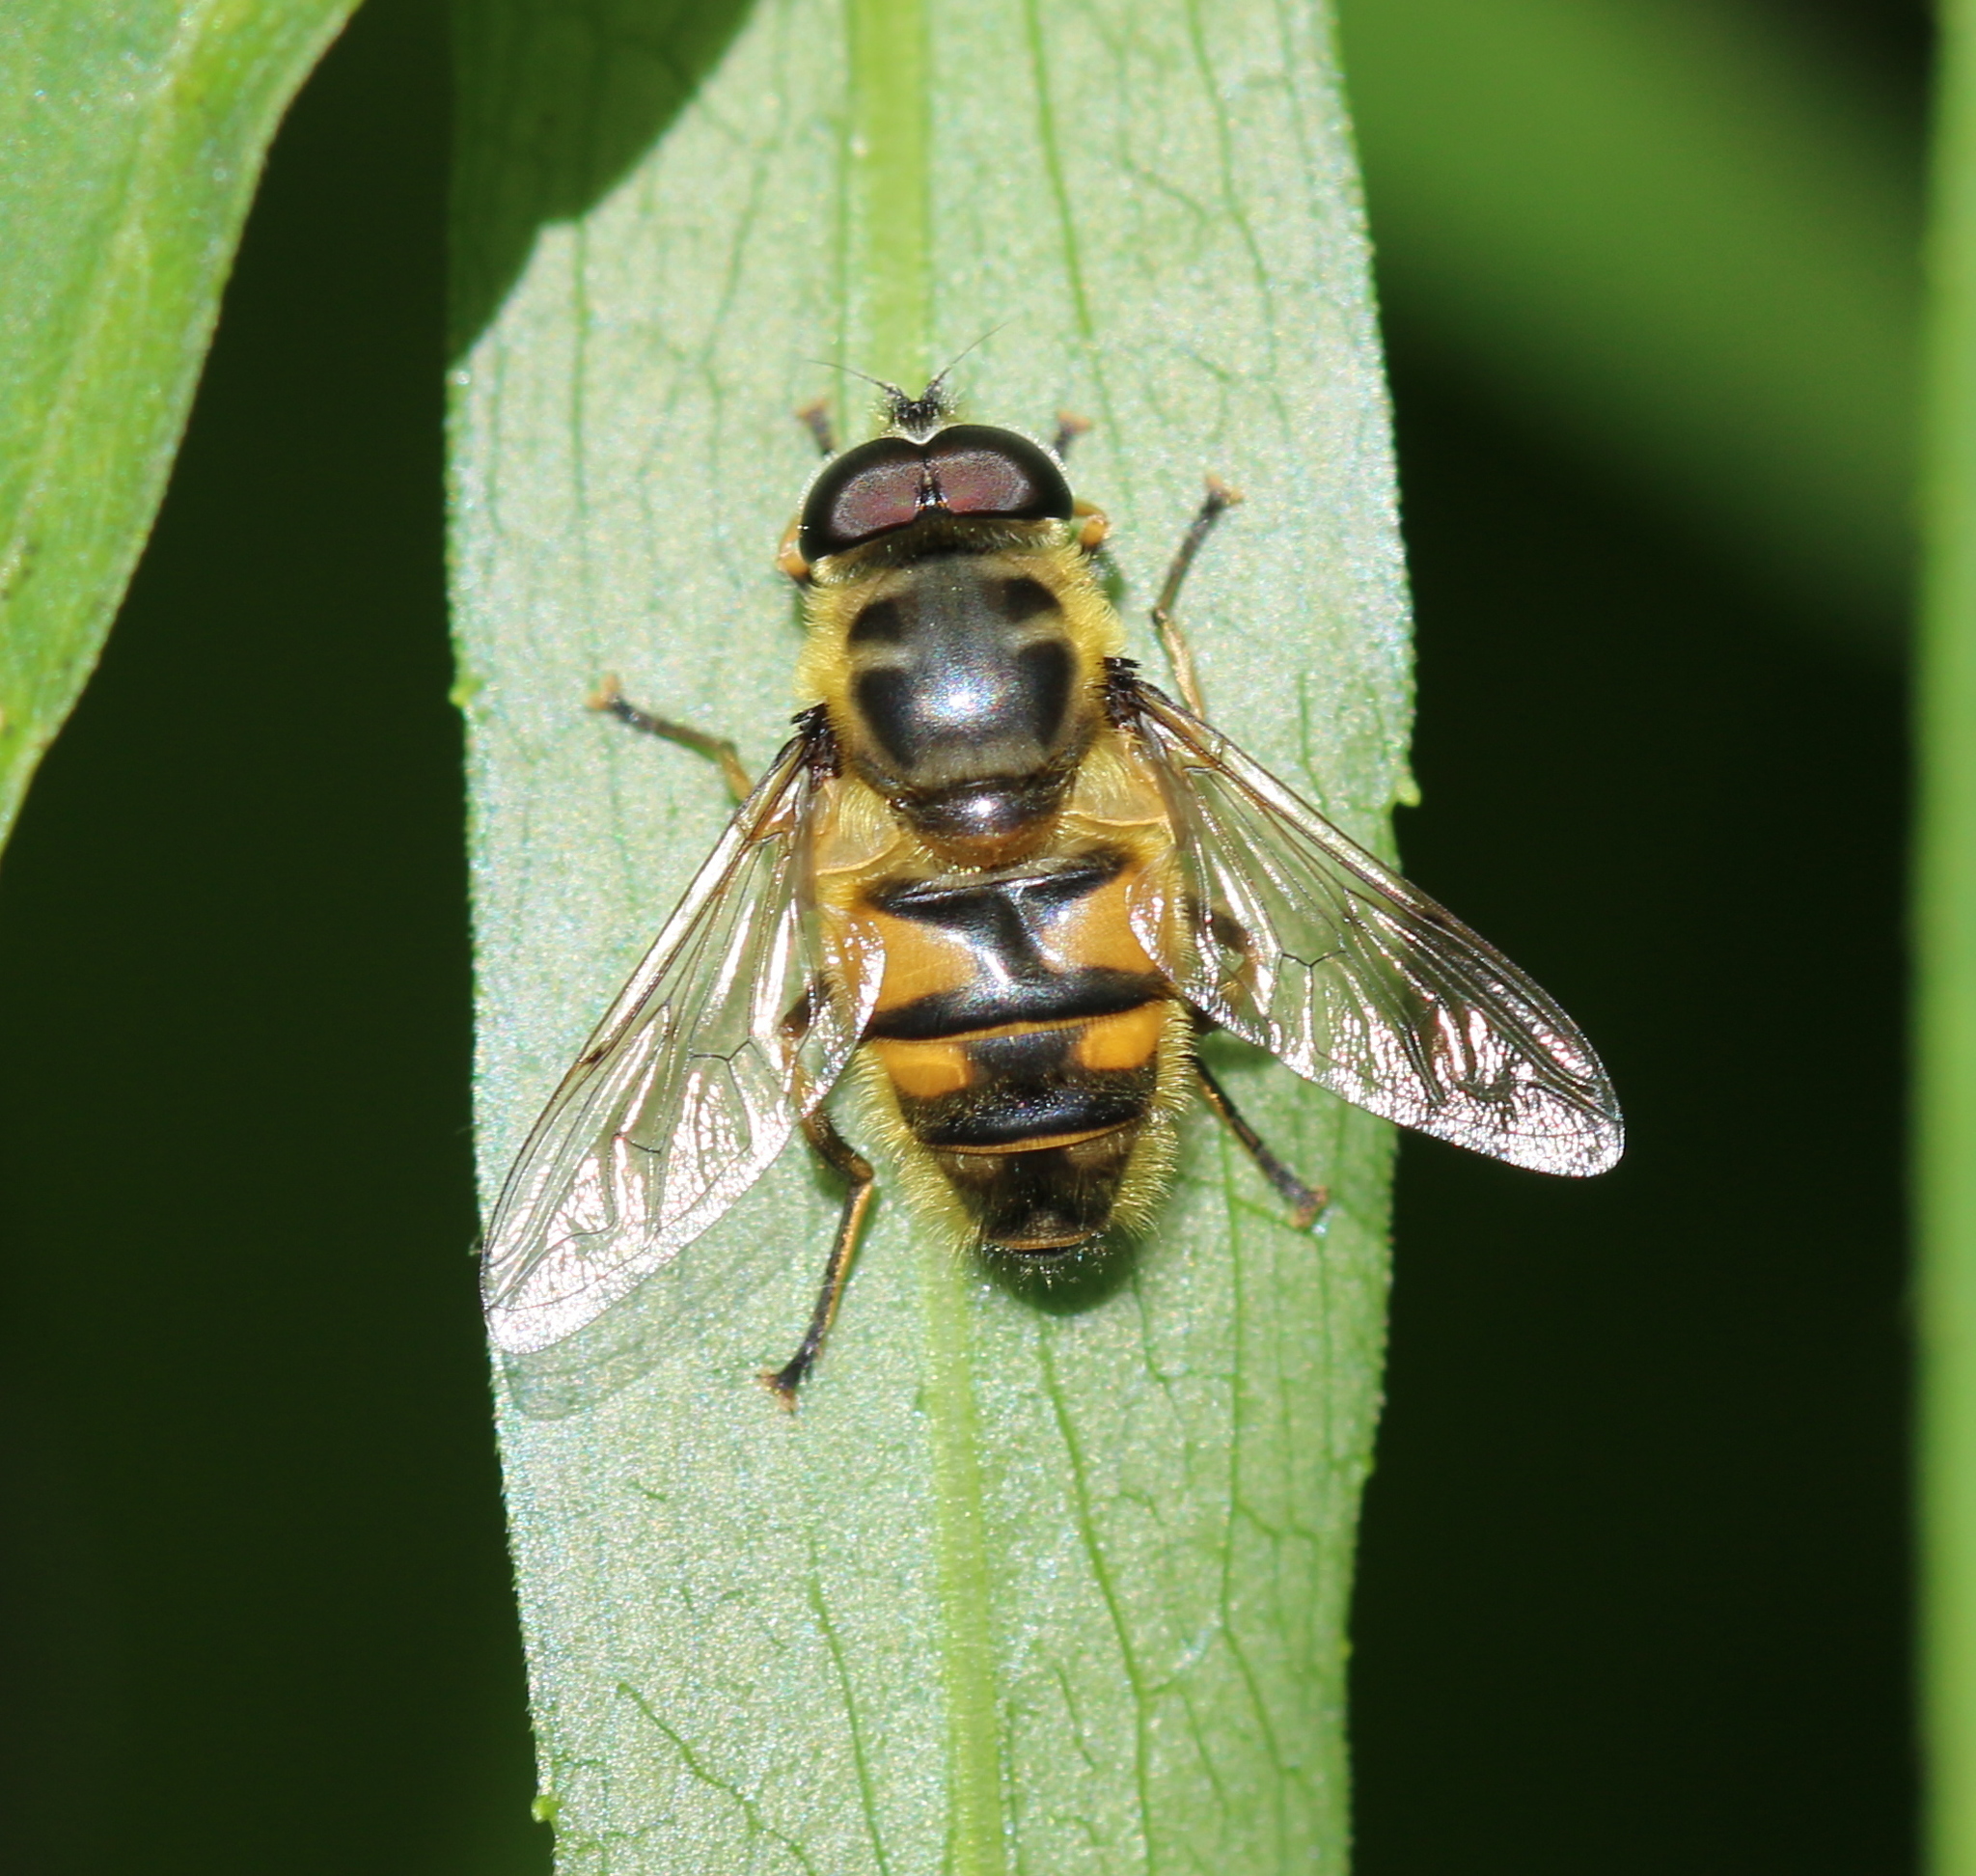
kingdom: Animalia
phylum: Arthropoda
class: Insecta
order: Diptera
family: Syrphidae
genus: Myathropa
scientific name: Myathropa florea
